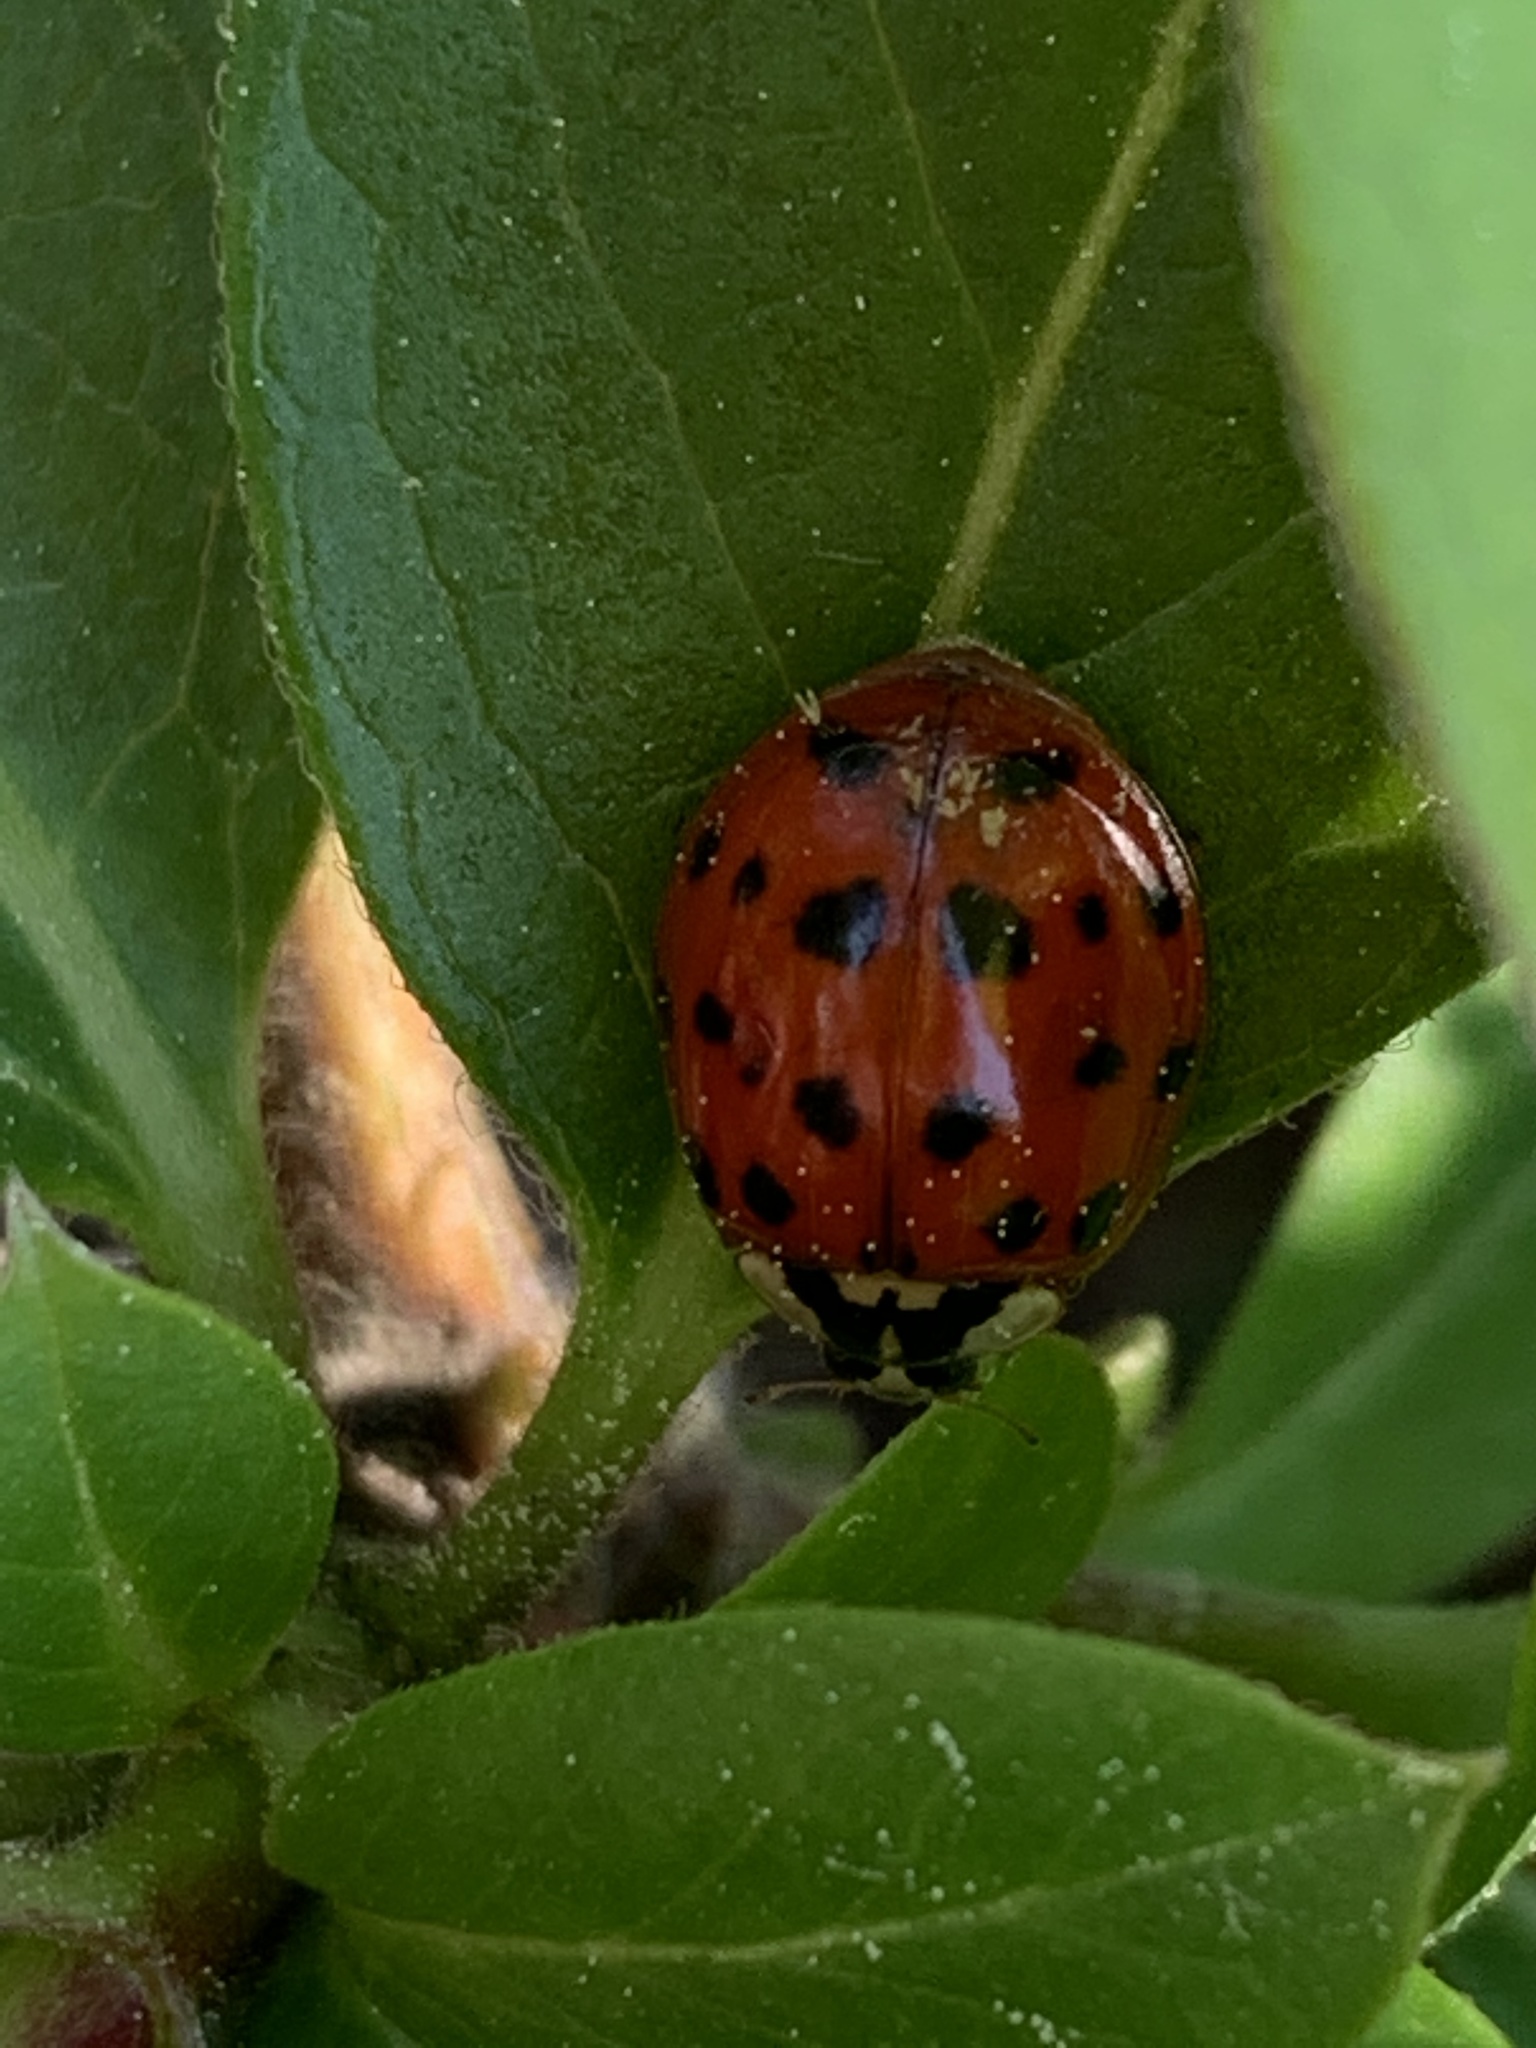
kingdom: Animalia
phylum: Arthropoda
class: Insecta
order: Coleoptera
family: Coccinellidae
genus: Harmonia
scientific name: Harmonia axyridis
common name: Harlequin ladybird
